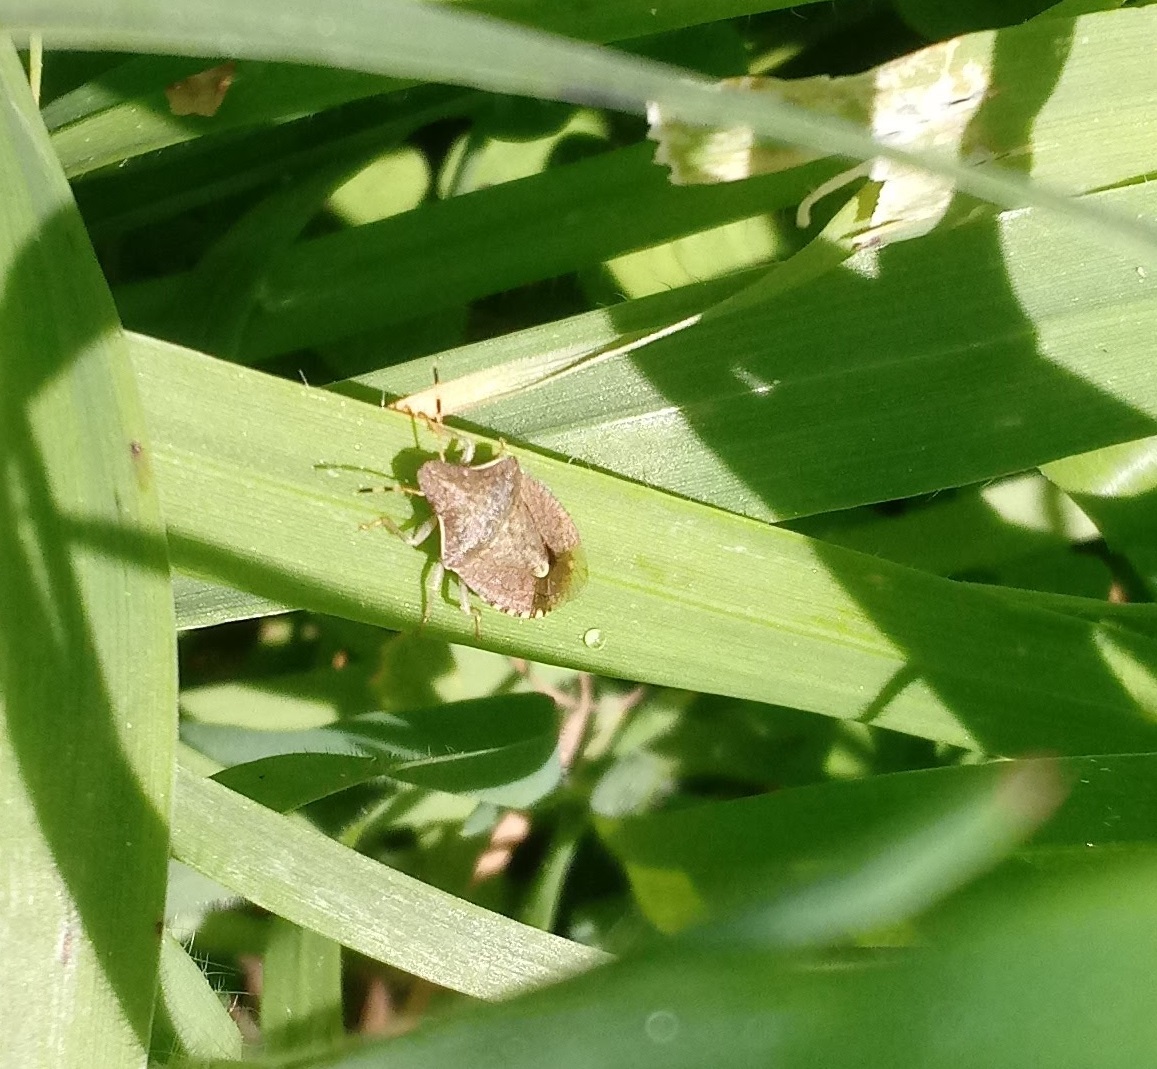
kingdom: Animalia
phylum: Arthropoda
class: Insecta
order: Hemiptera
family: Pentatomidae
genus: Holcostethus
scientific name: Holcostethus strictus
